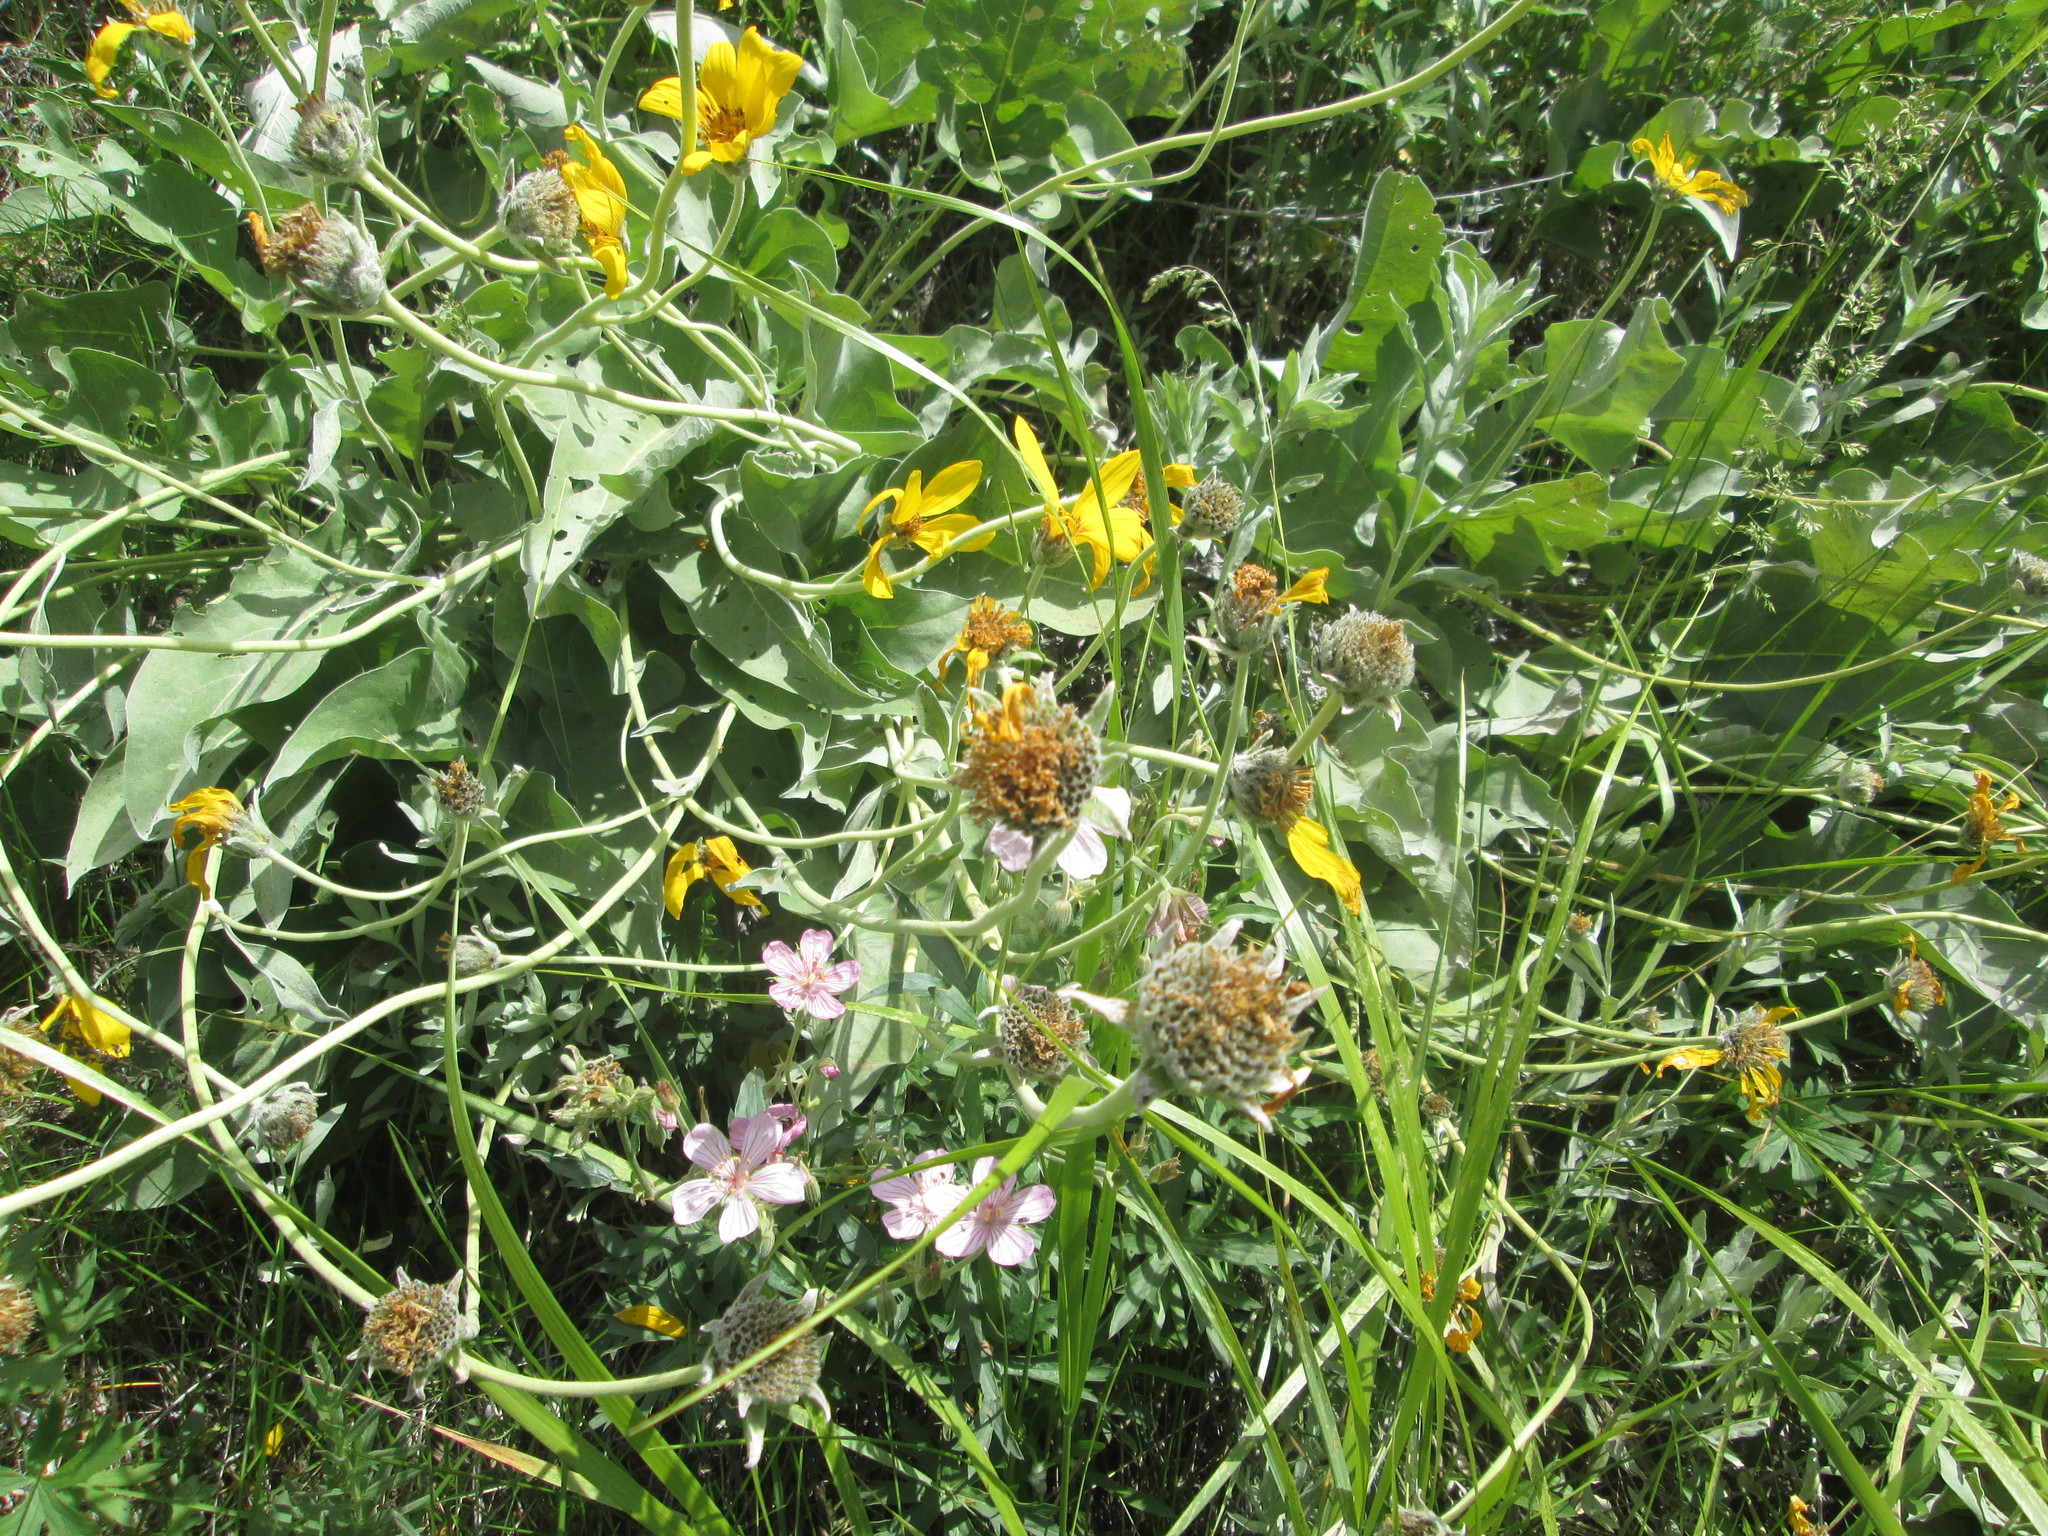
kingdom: Plantae
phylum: Tracheophyta
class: Magnoliopsida
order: Asterales
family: Asteraceae
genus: Wyethia
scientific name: Wyethia sagittata
